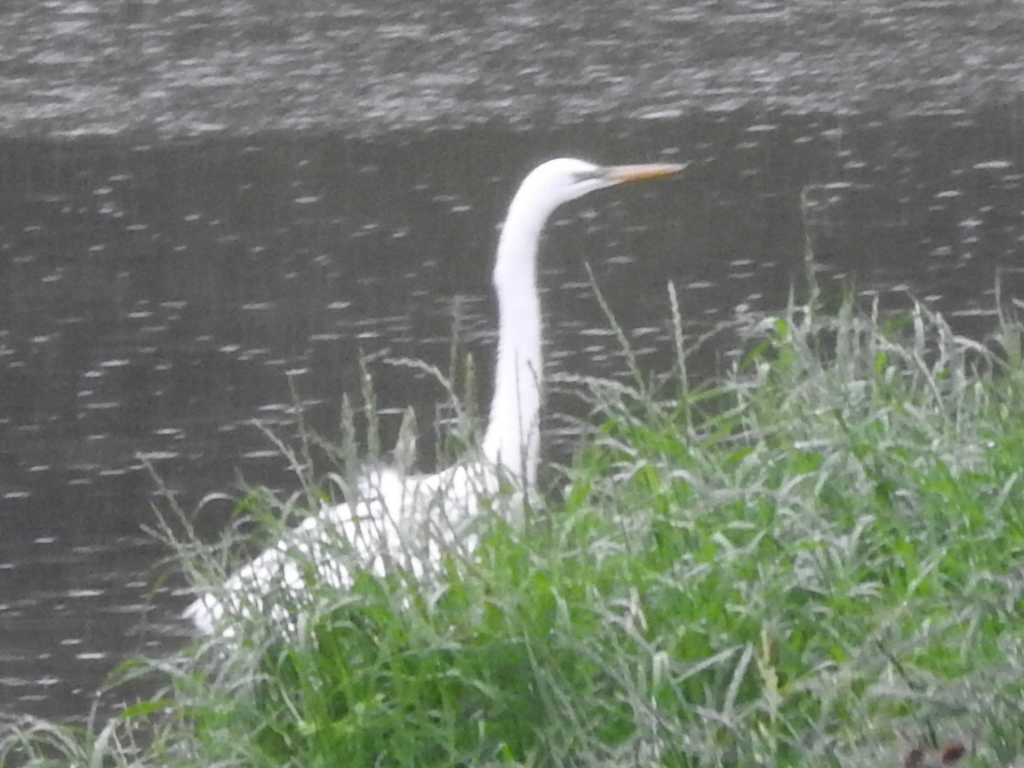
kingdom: Animalia
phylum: Chordata
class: Aves
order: Pelecaniformes
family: Ardeidae
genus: Ardea
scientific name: Ardea alba
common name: Great egret
